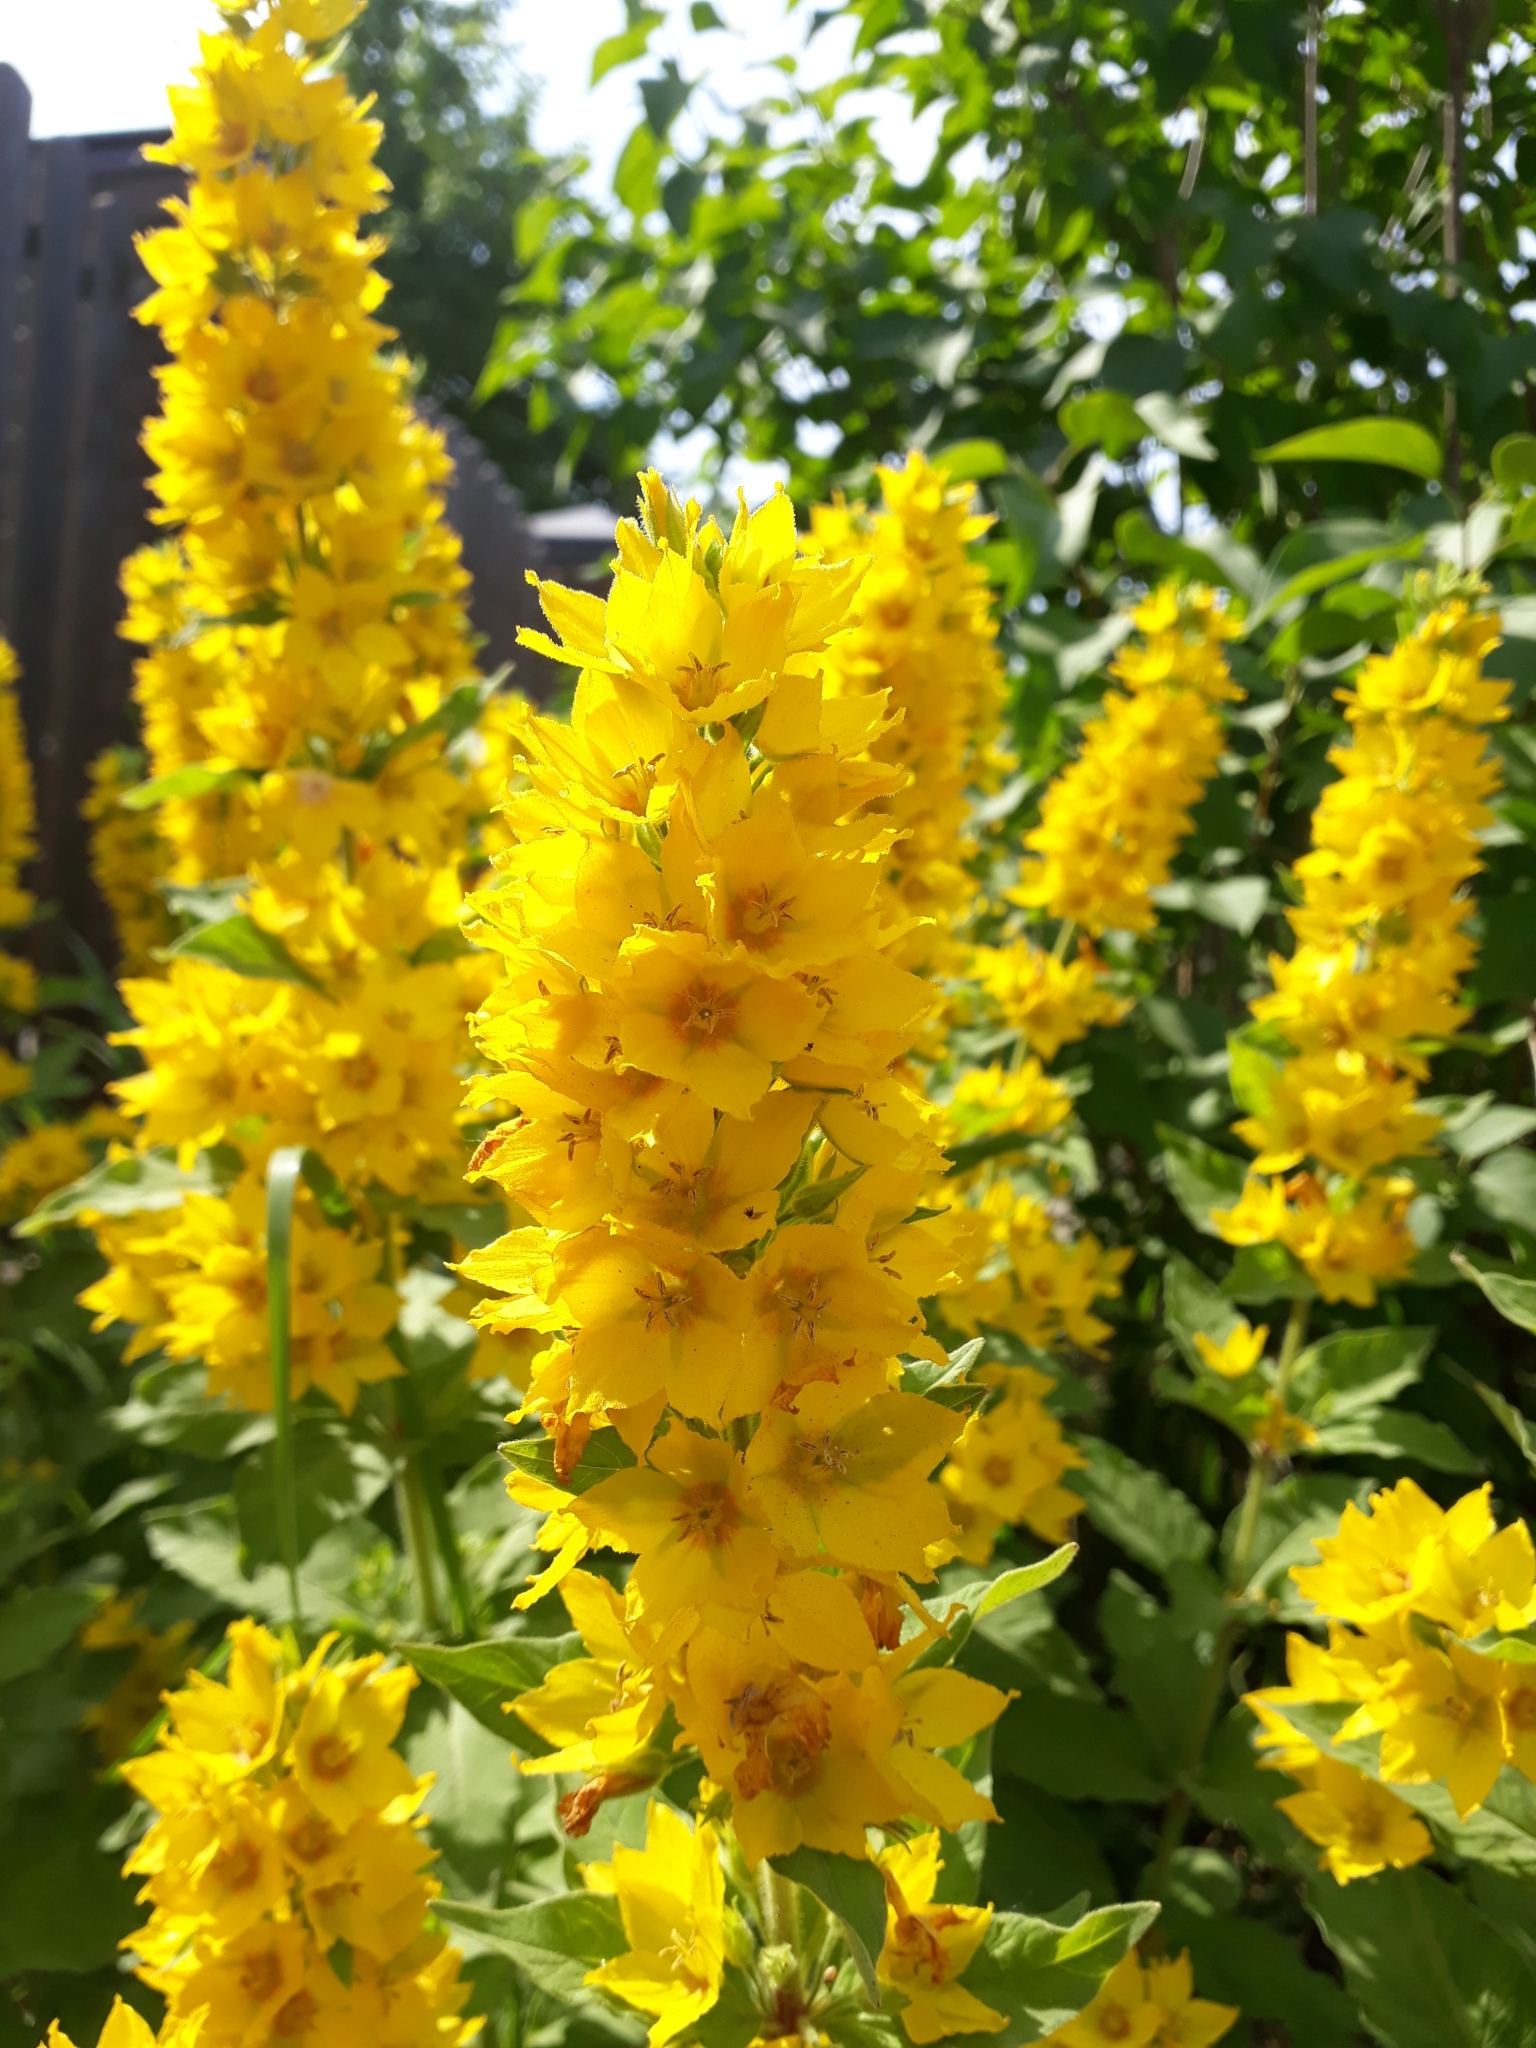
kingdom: Plantae
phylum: Tracheophyta
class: Magnoliopsida
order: Ericales
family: Primulaceae
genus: Lysimachia
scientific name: Lysimachia punctata
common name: Dotted loosestrife
